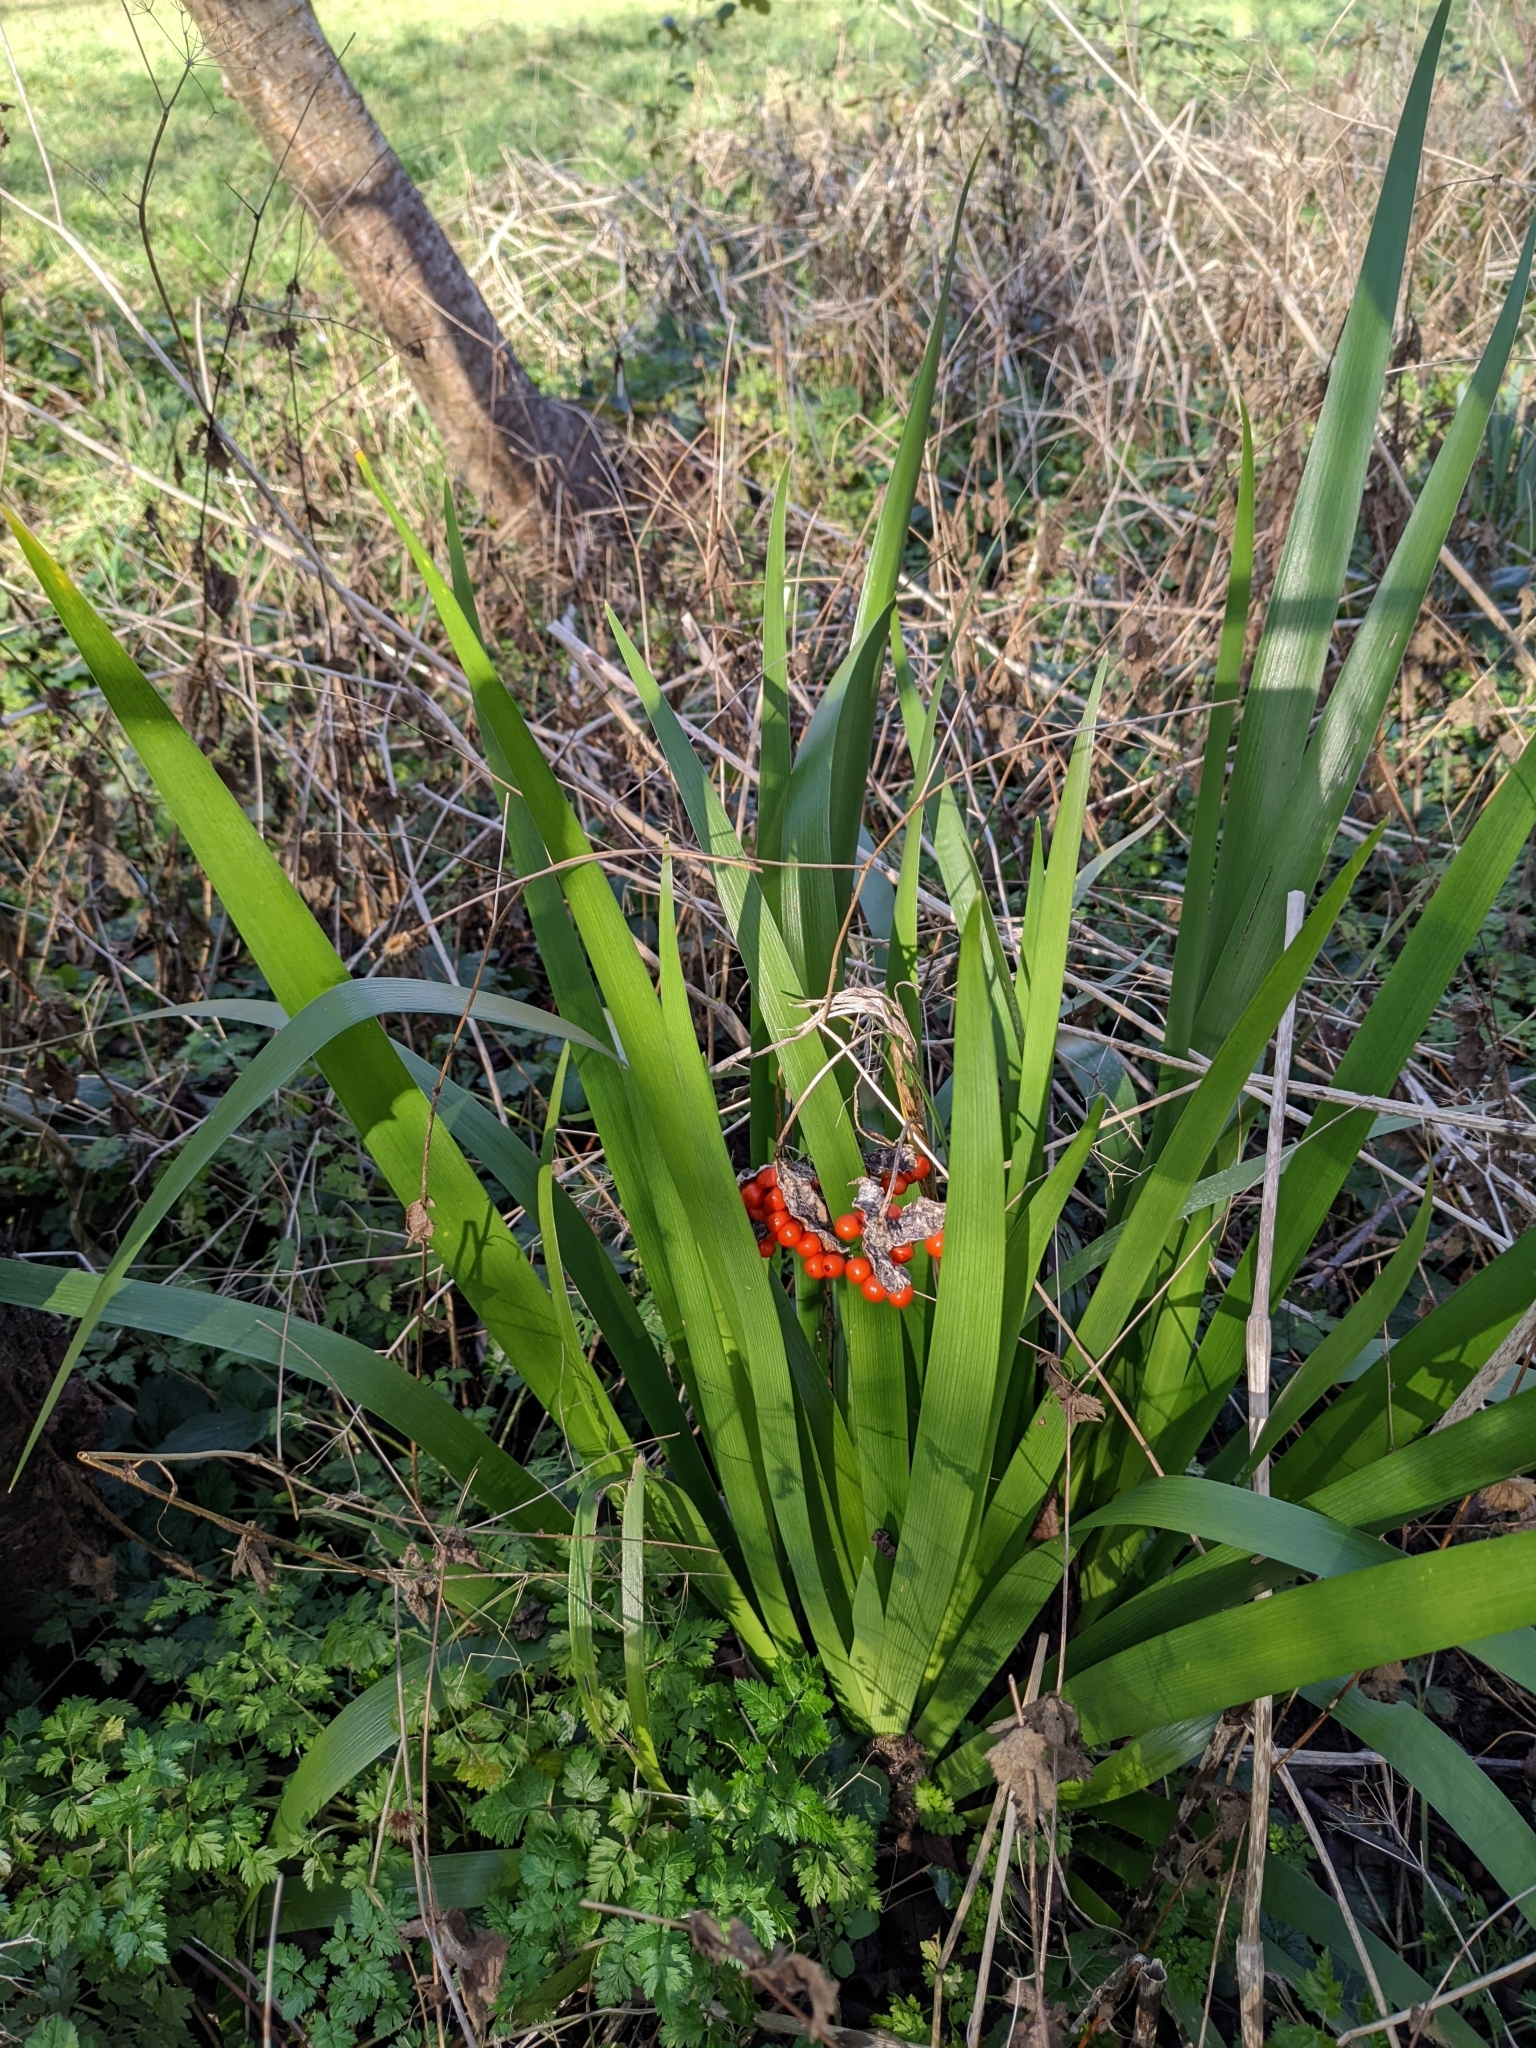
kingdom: Plantae
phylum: Tracheophyta
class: Liliopsida
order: Asparagales
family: Iridaceae
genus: Iris
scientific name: Iris foetidissima
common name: Stinking iris
